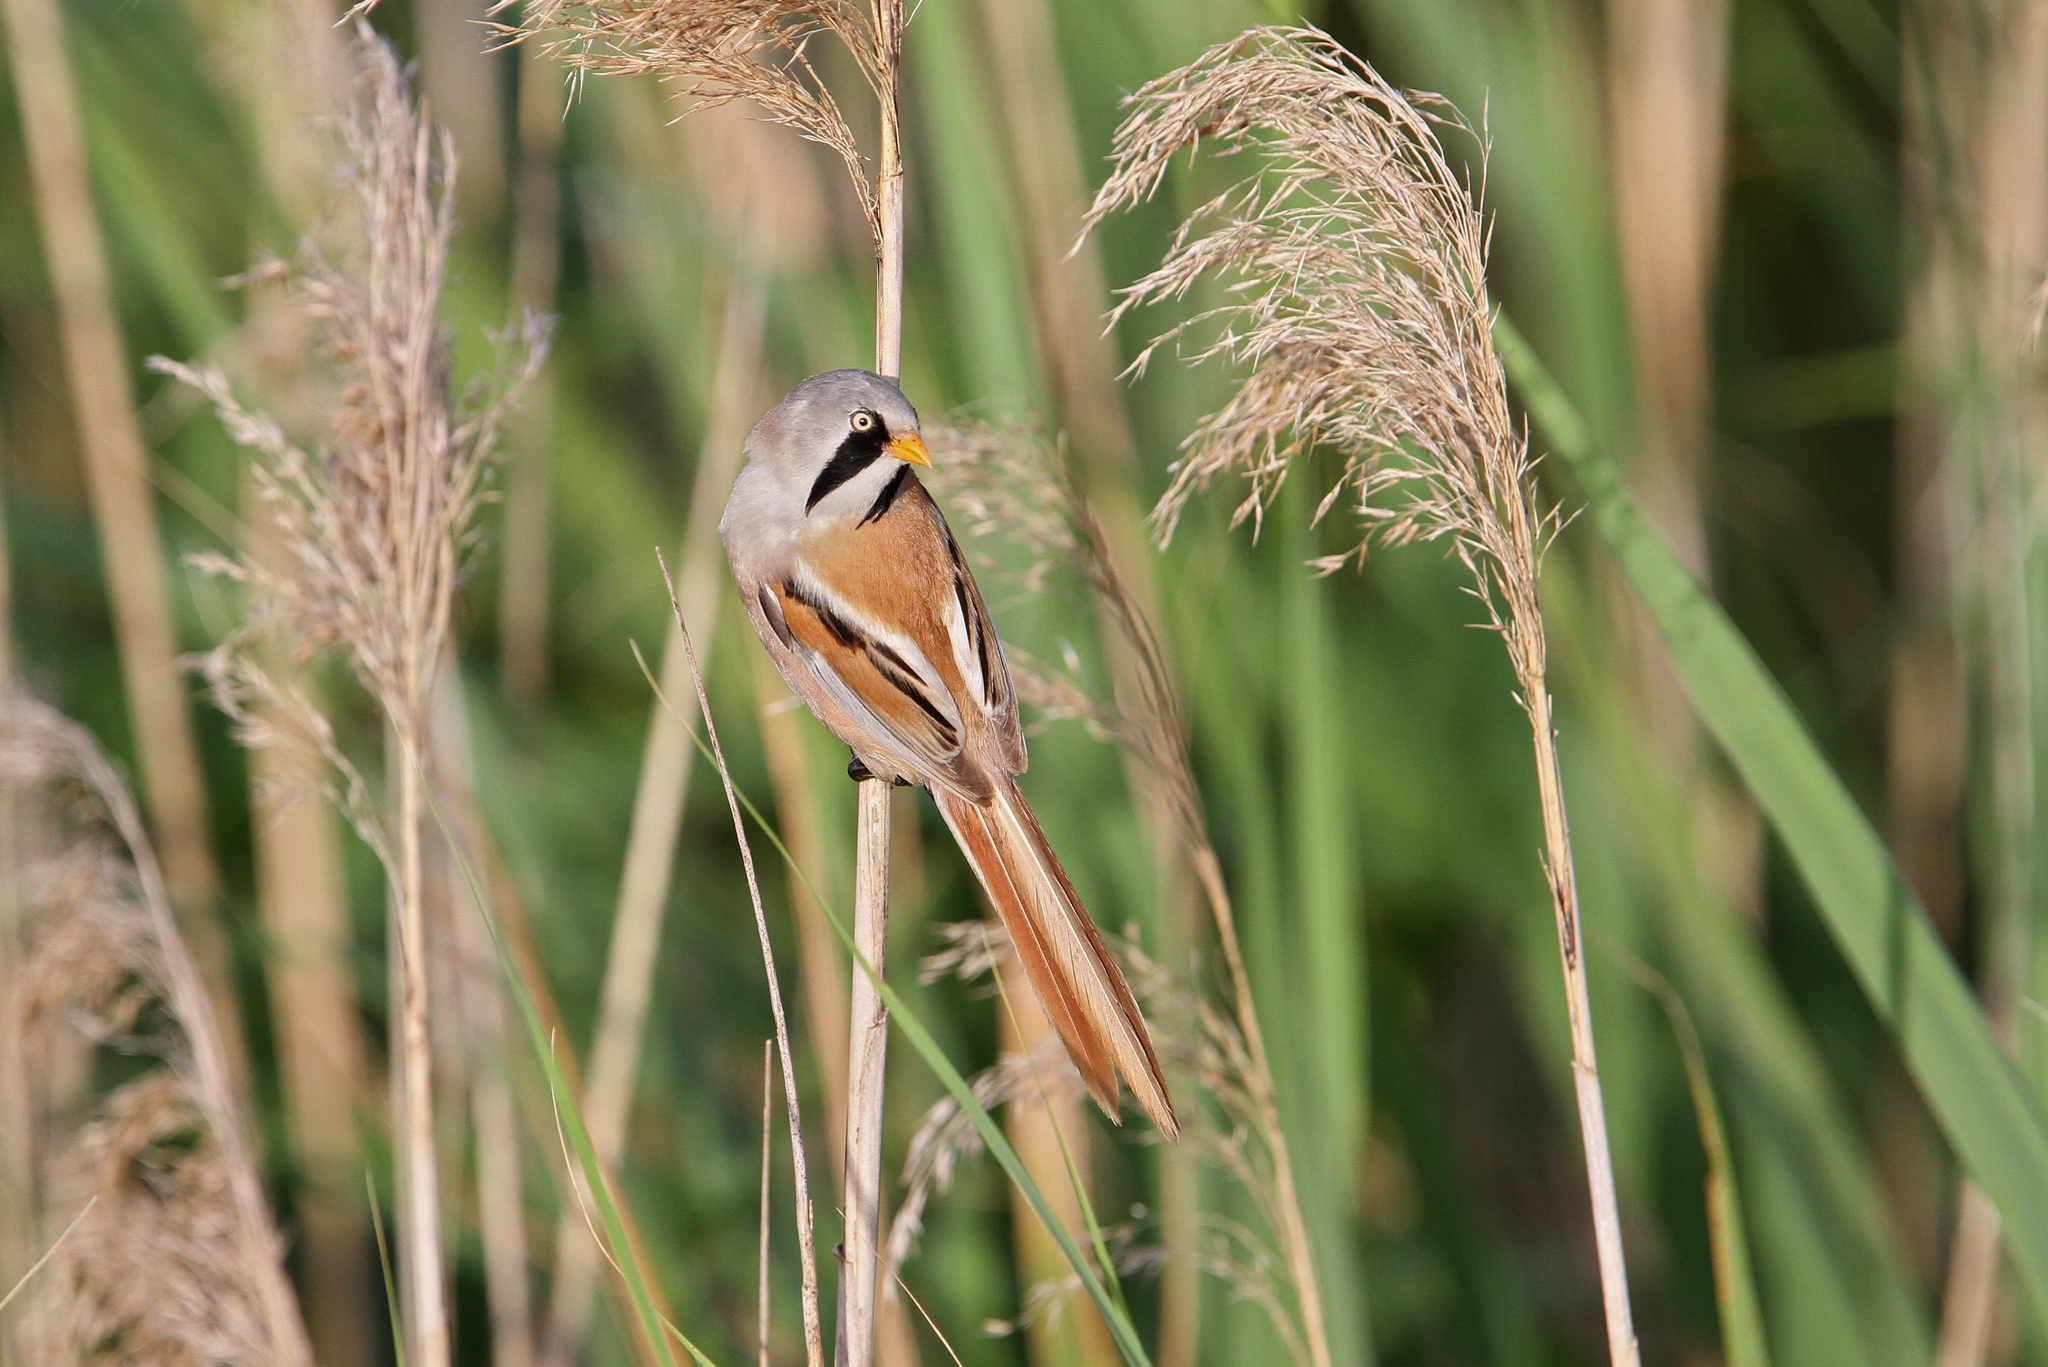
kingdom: Animalia
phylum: Chordata
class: Aves
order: Passeriformes
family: Panuridae
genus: Panurus
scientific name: Panurus biarmicus
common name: Bearded reedling
